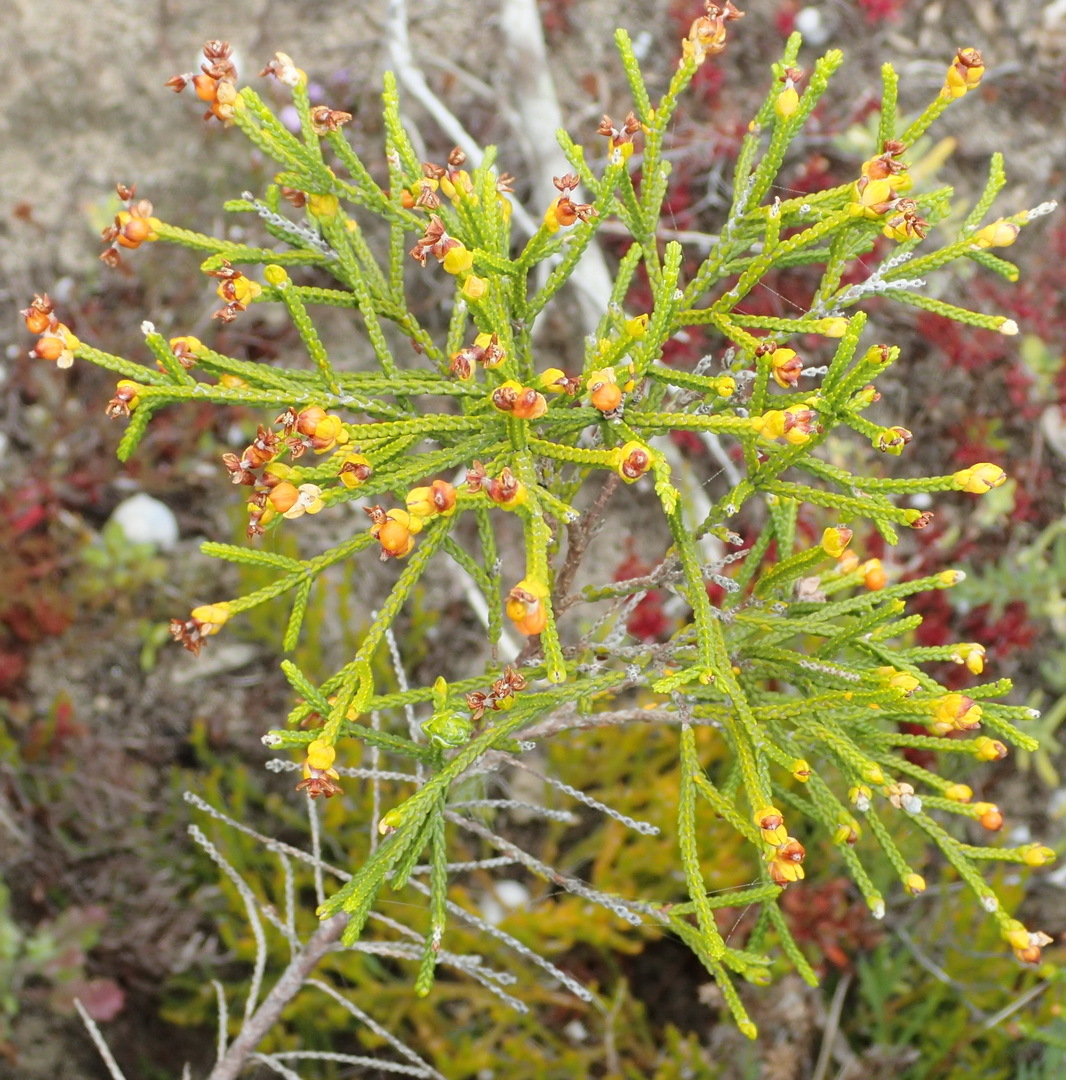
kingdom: Plantae
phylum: Tracheophyta
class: Magnoliopsida
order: Malvales
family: Thymelaeaceae
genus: Passerina
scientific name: Passerina rigida
